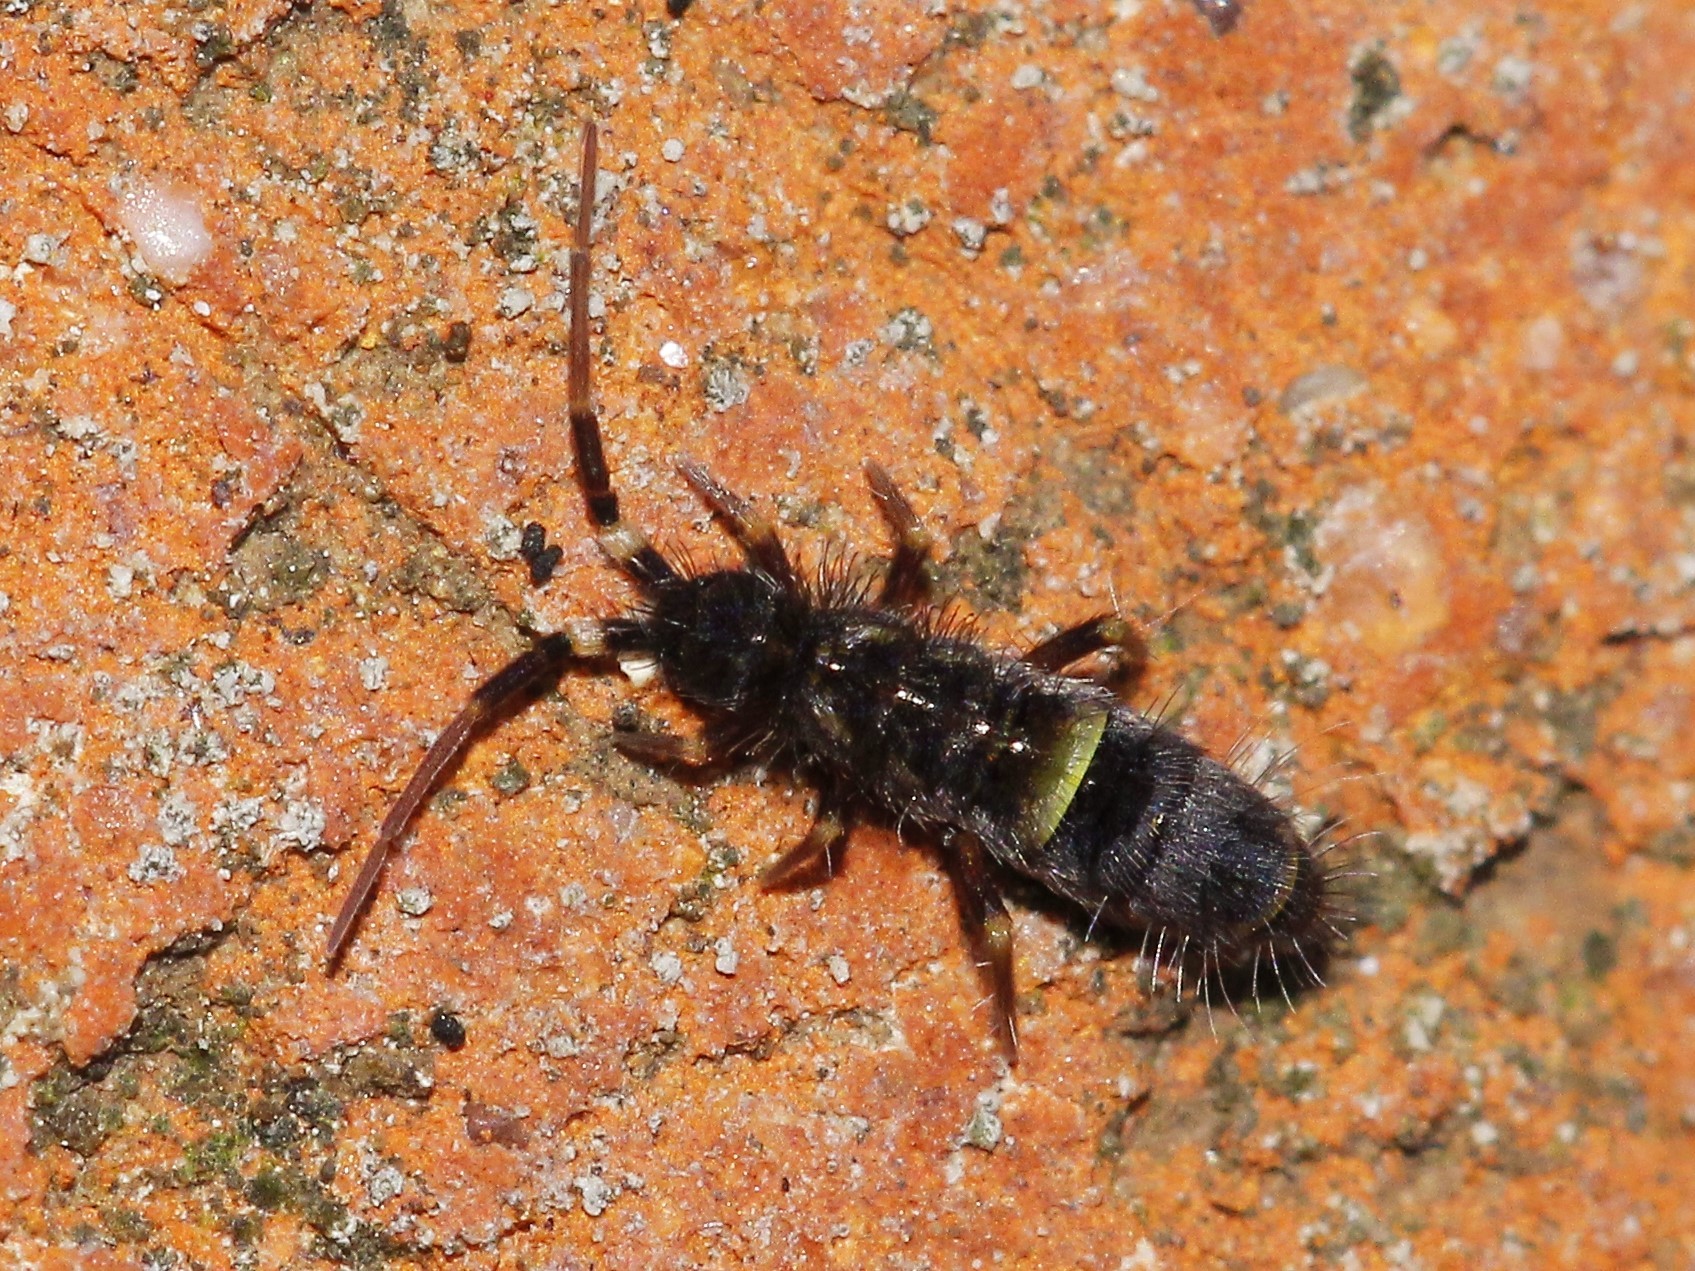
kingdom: Animalia
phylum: Arthropoda
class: Collembola
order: Entomobryomorpha
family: Orchesellidae
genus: Orchesella
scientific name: Orchesella cincta
